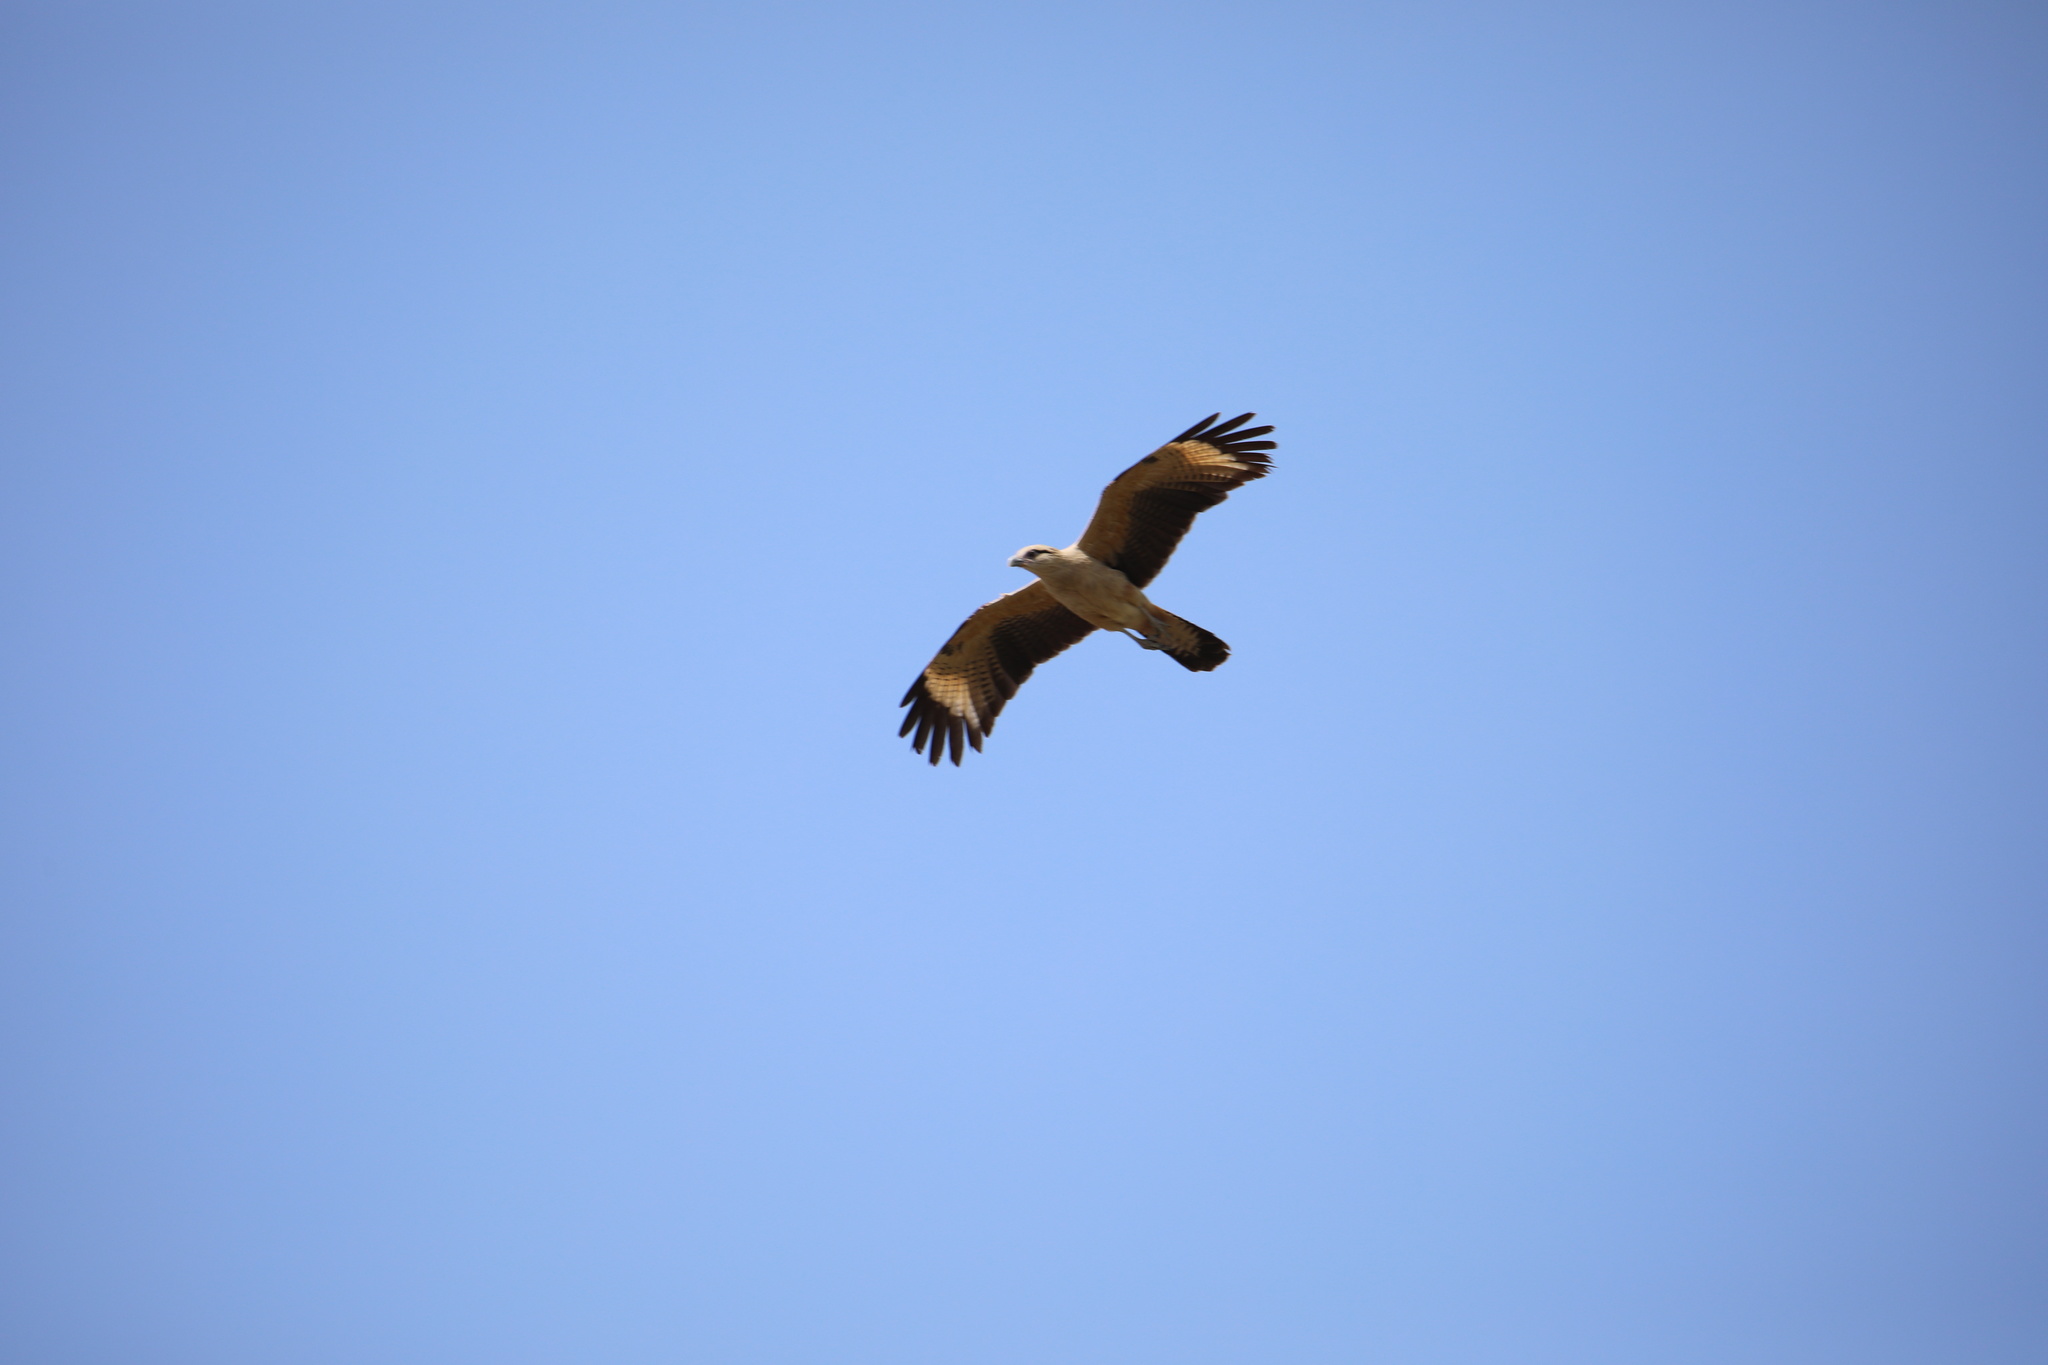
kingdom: Animalia
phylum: Chordata
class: Aves
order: Falconiformes
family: Falconidae
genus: Daptrius
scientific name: Daptrius
